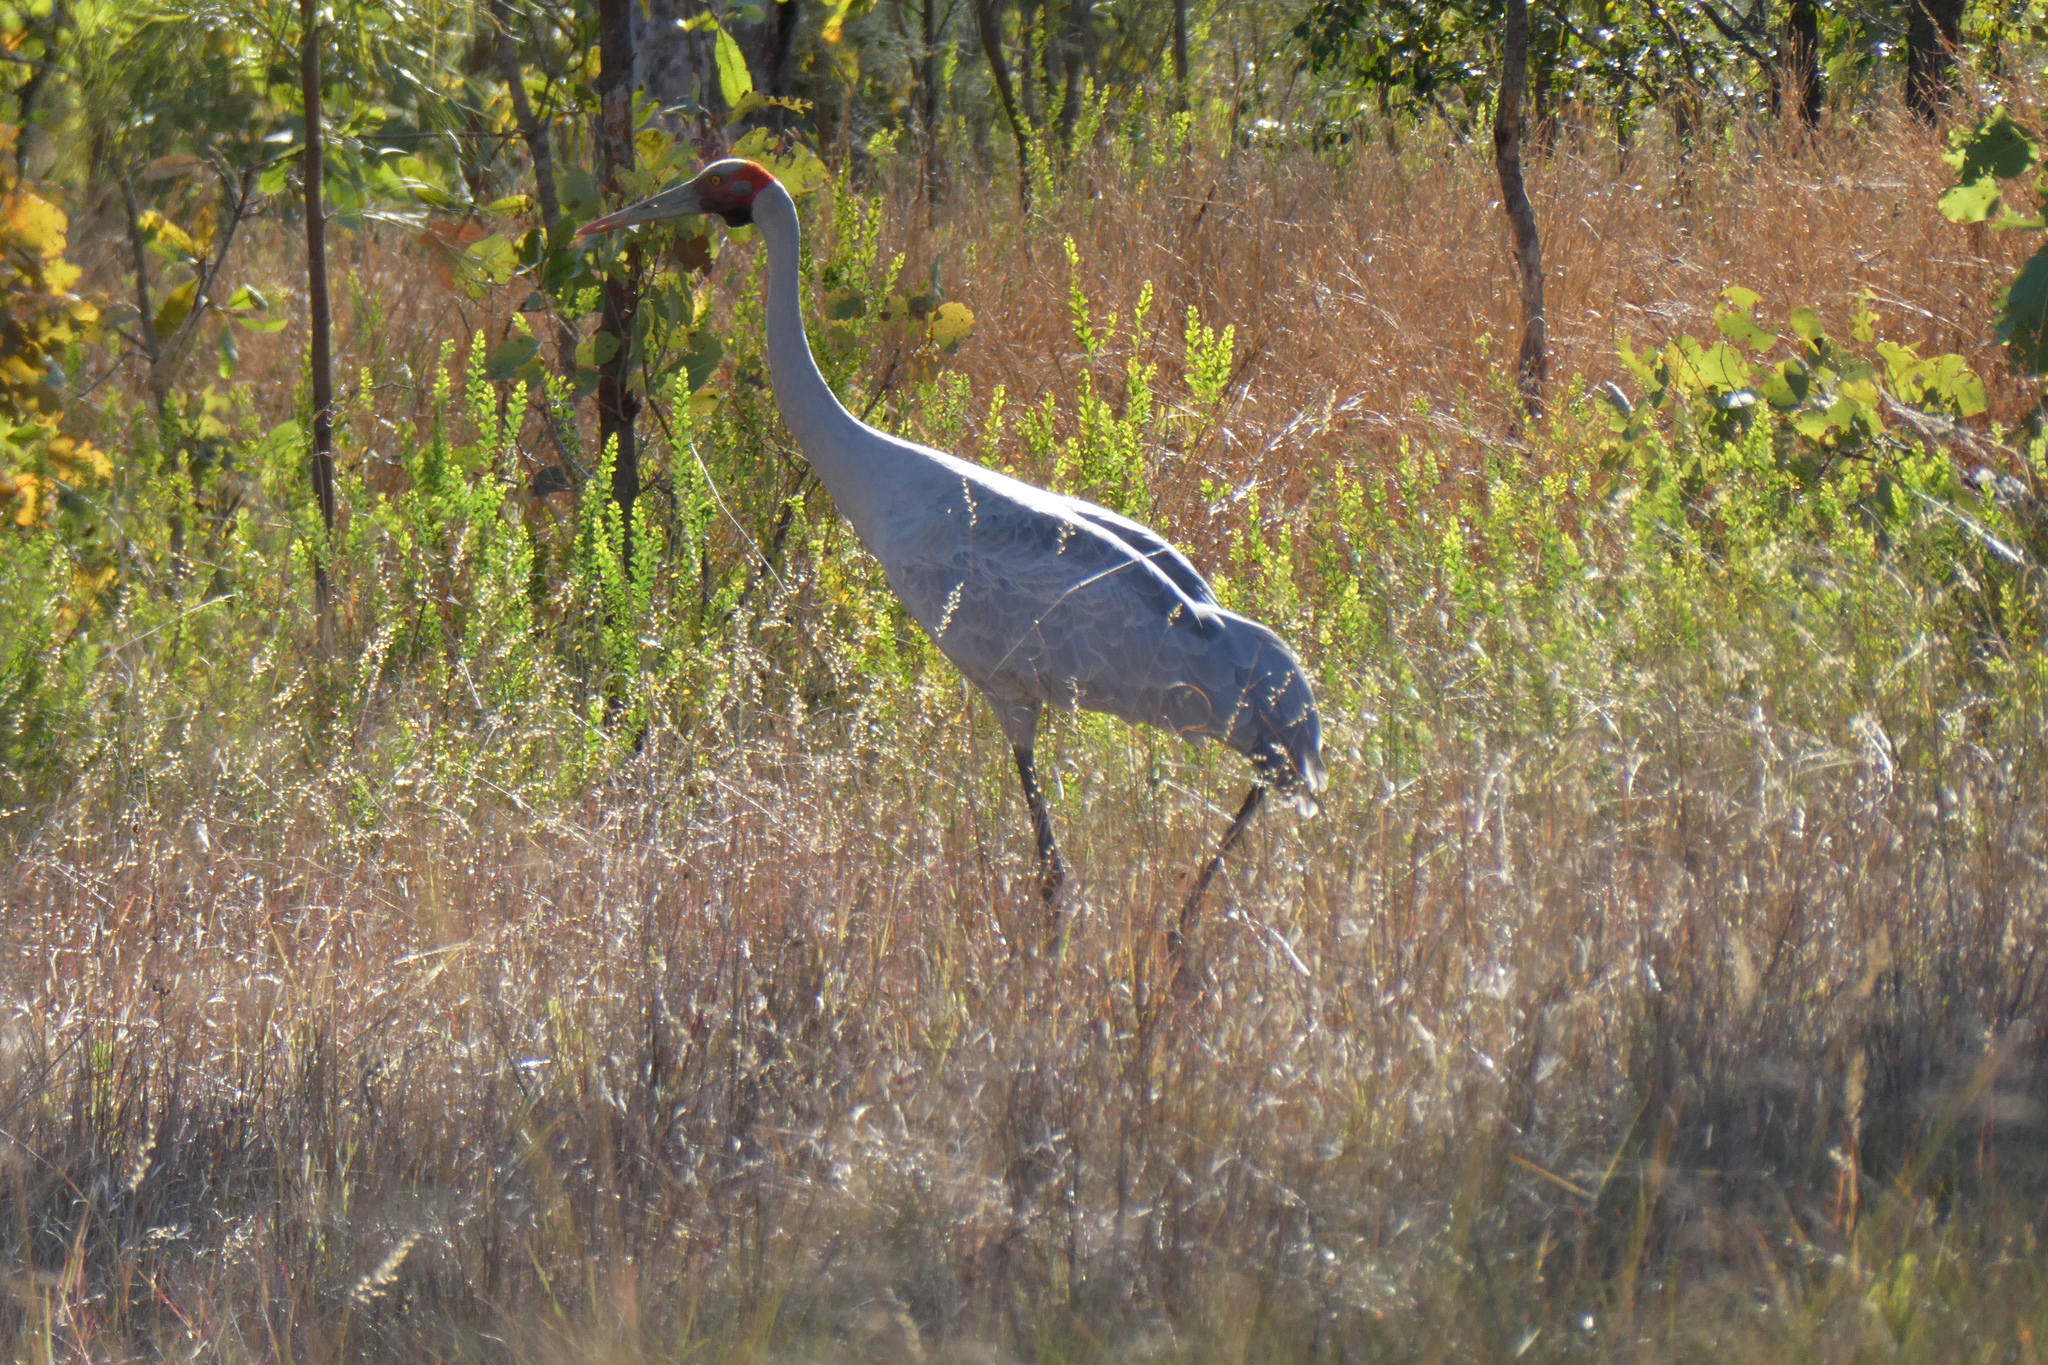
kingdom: Animalia
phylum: Chordata
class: Aves
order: Gruiformes
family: Gruidae
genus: Grus
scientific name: Grus rubicunda
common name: Brolga
